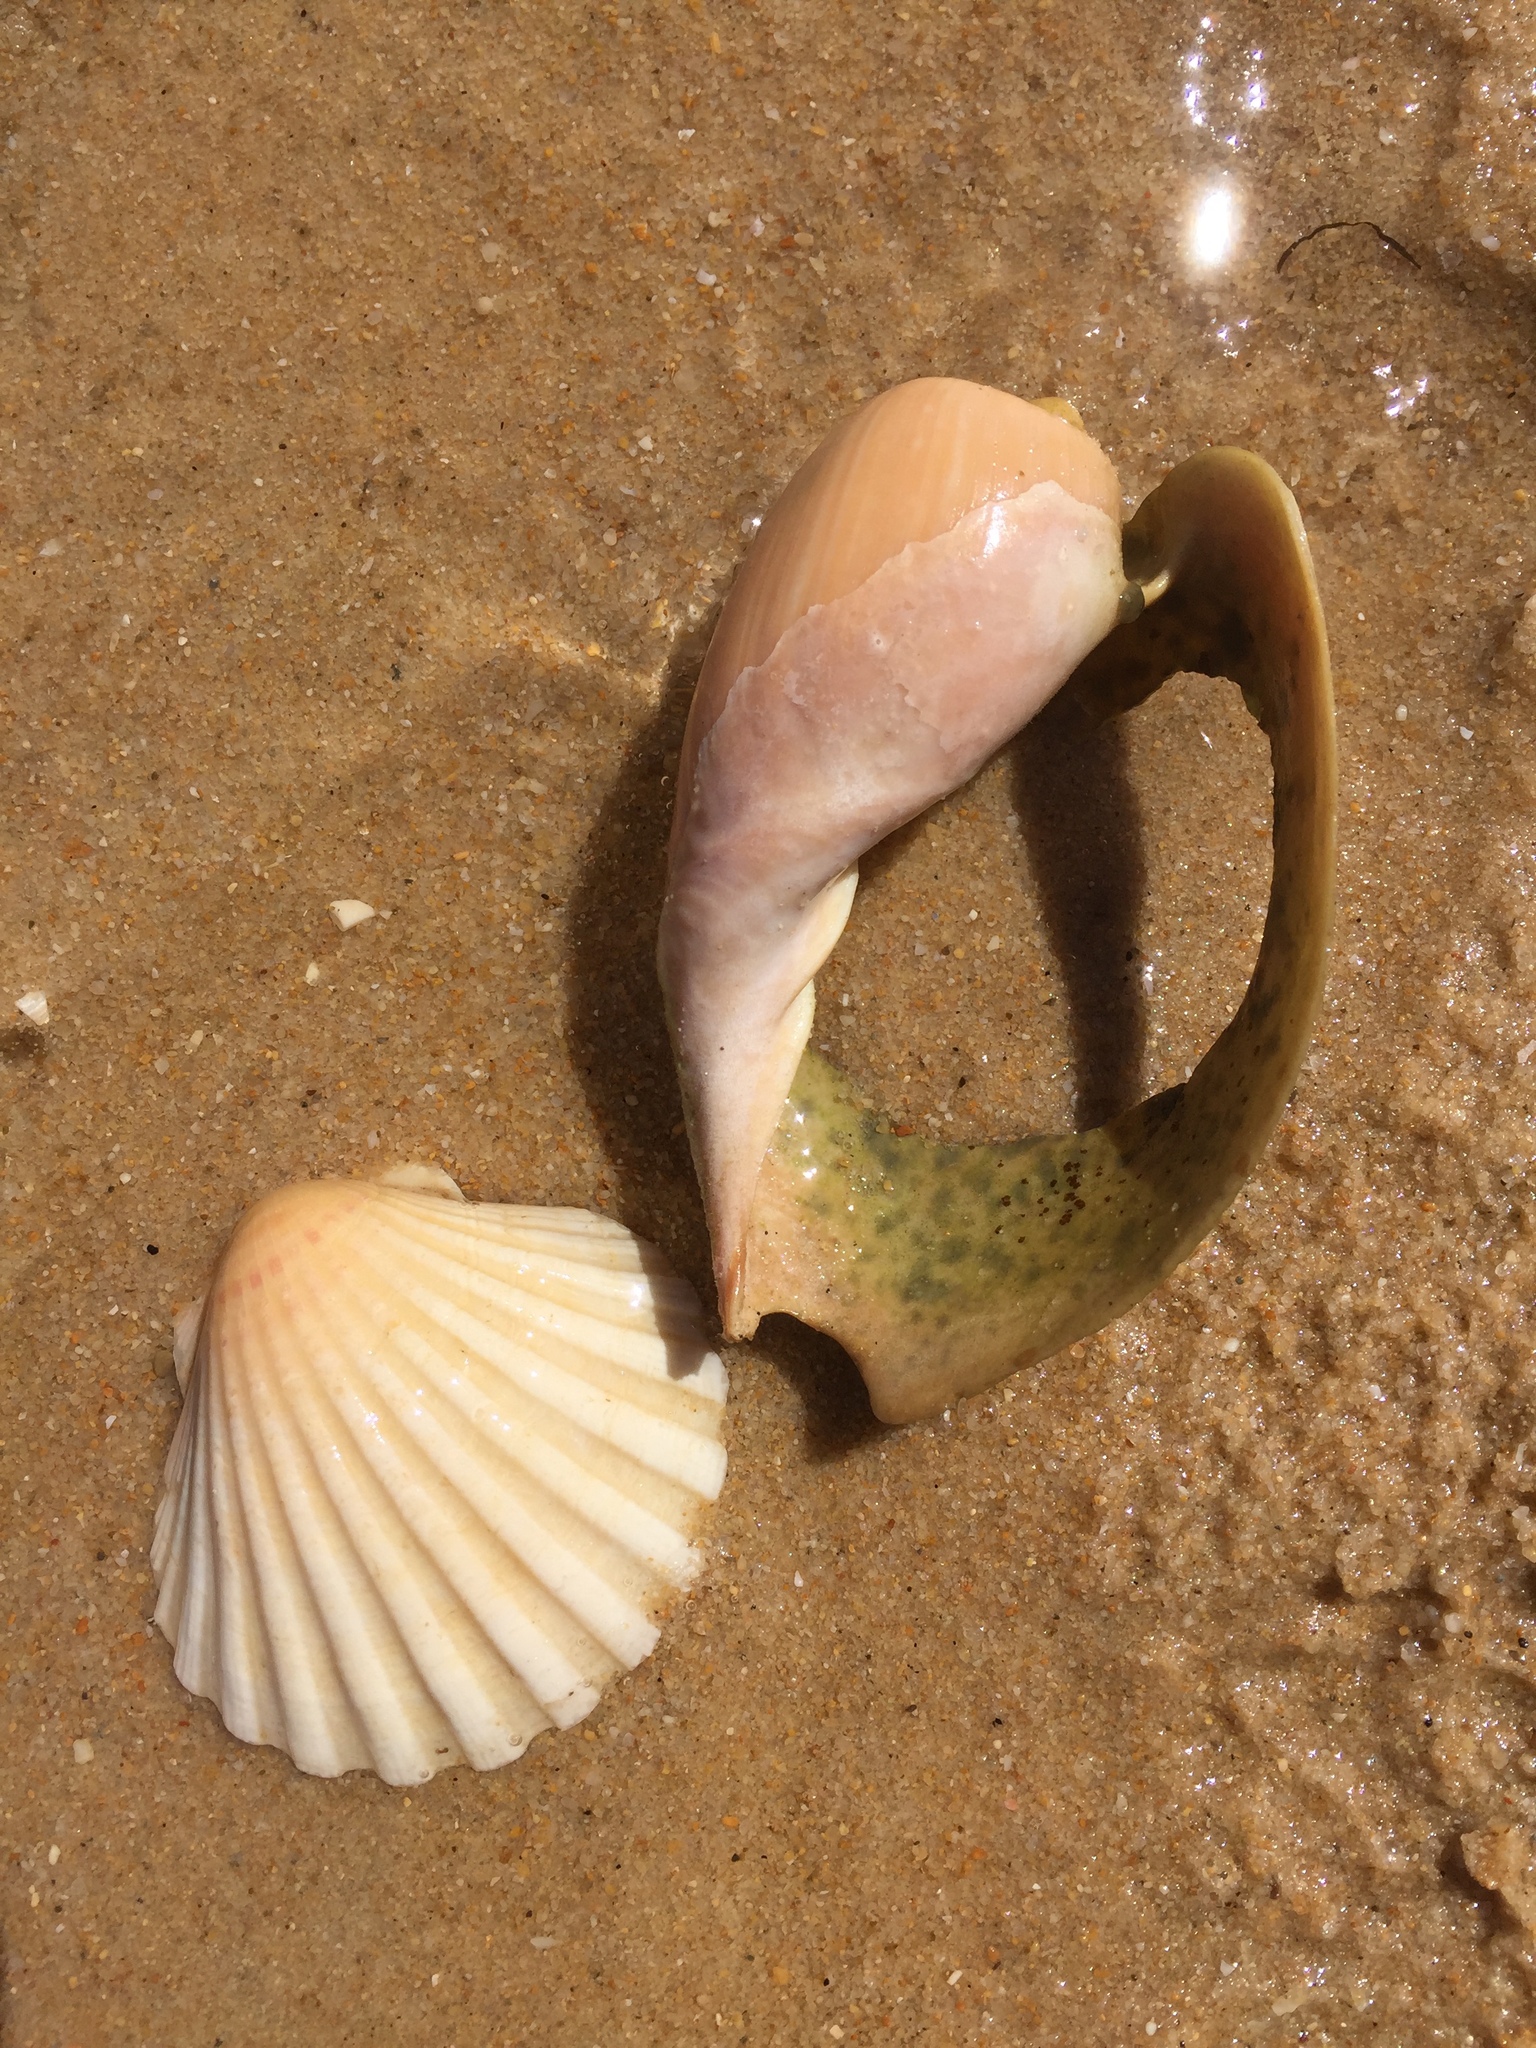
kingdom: Animalia
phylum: Mollusca
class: Bivalvia
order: Pectinida
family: Pectinidae
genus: Pecten
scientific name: Pecten maximus
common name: Great scallop
